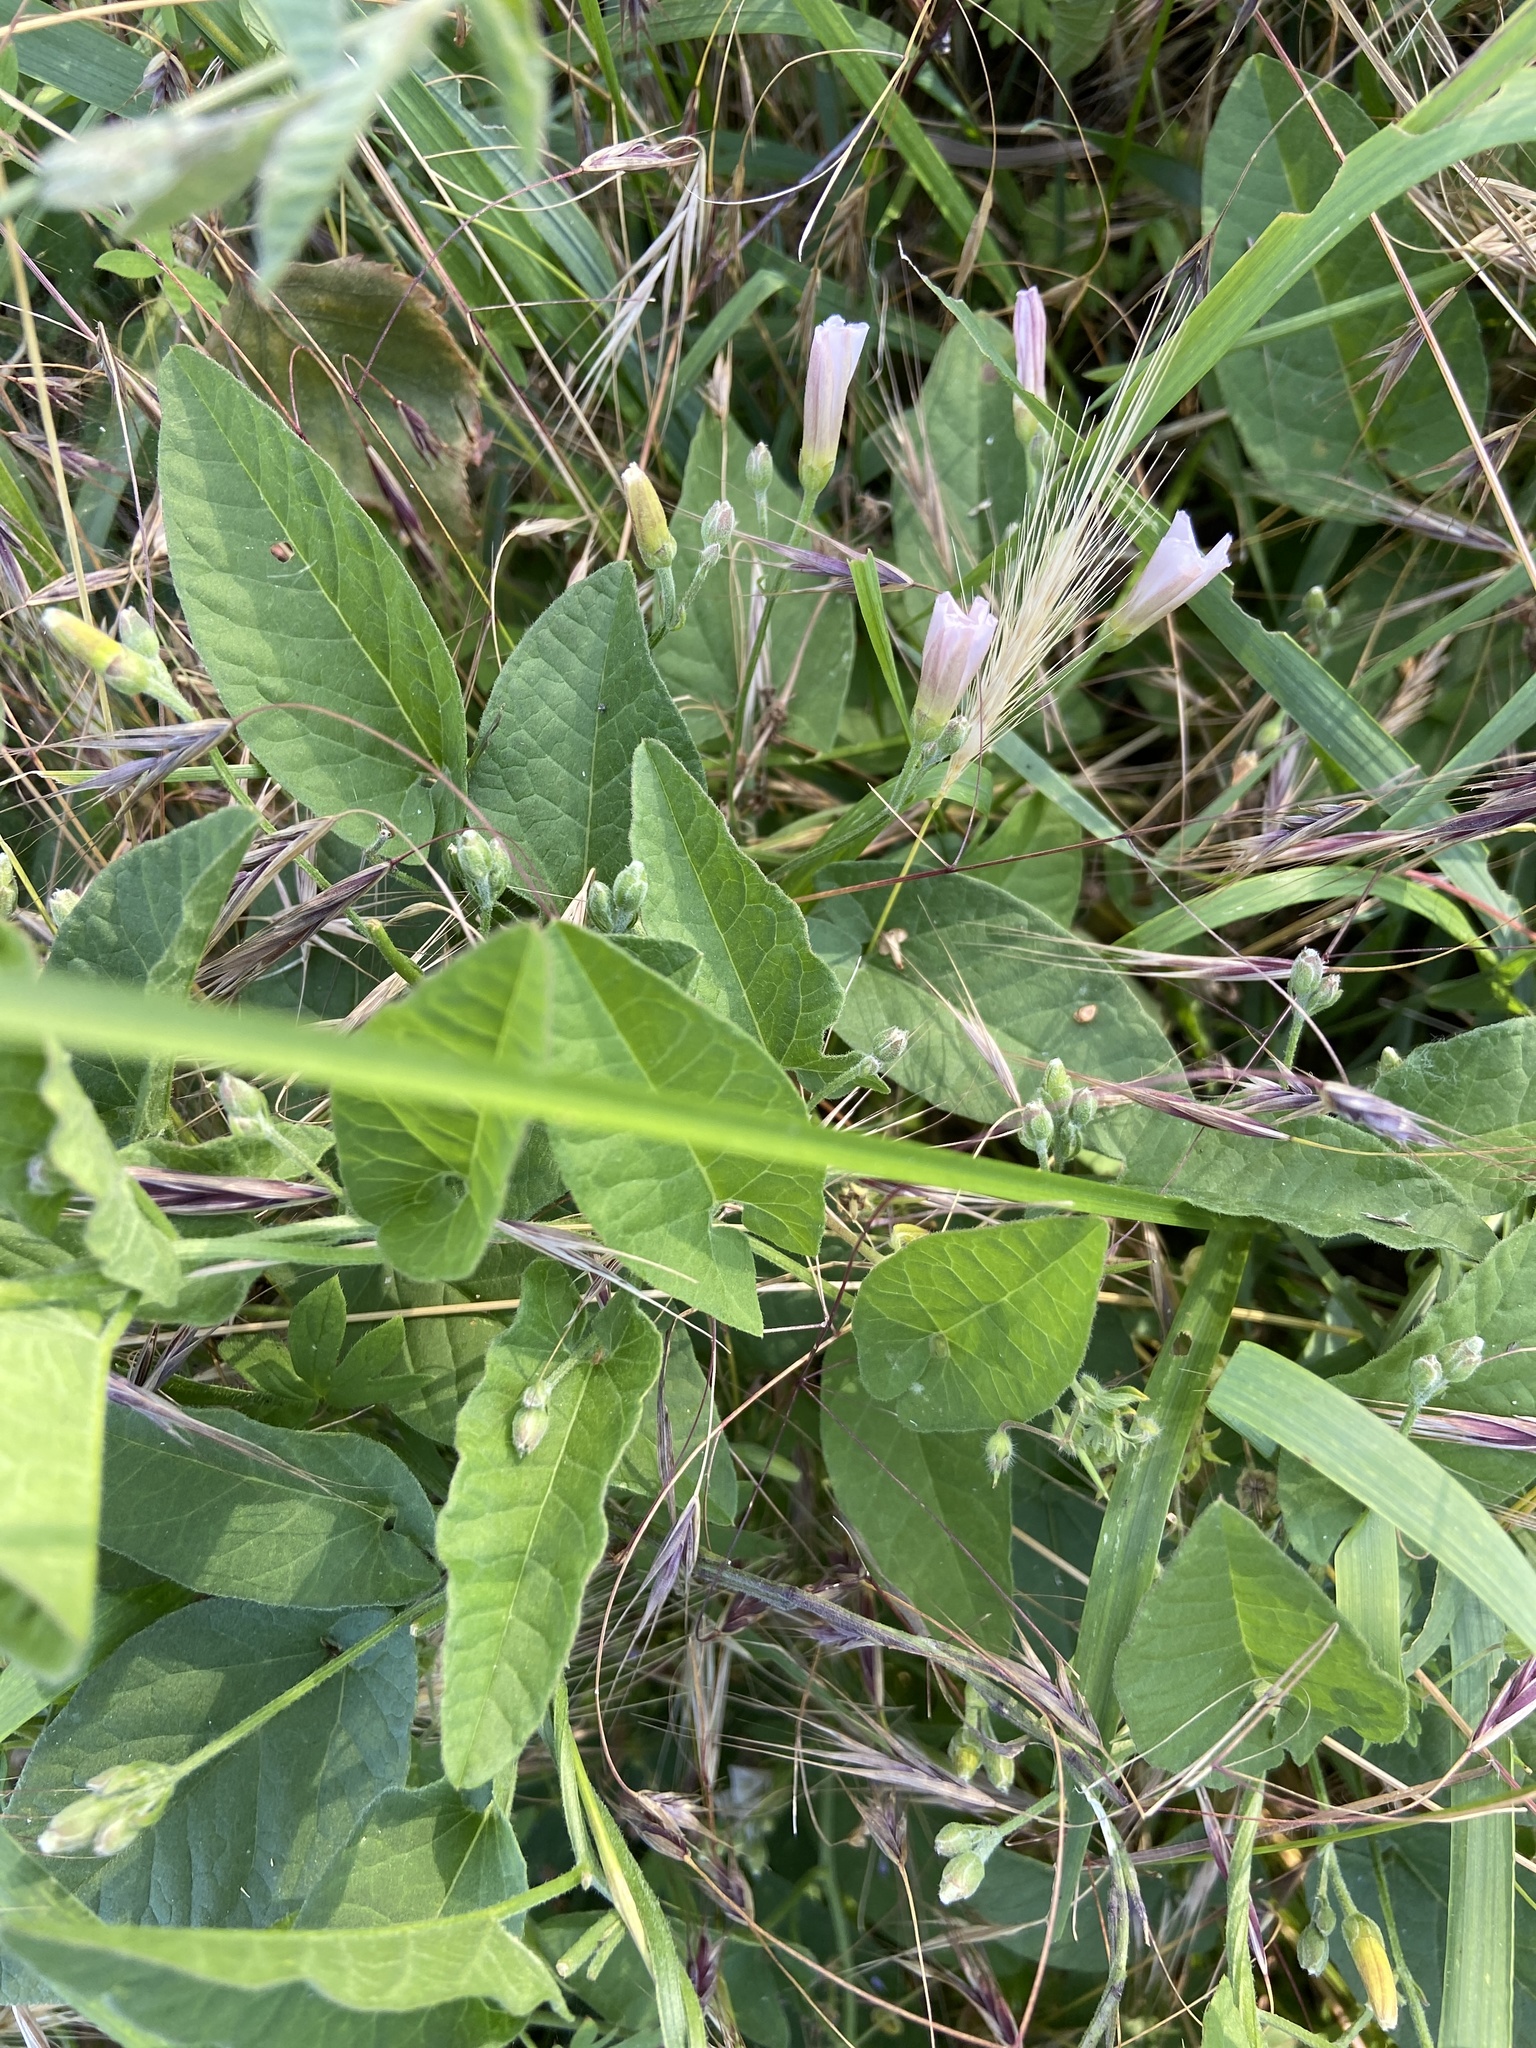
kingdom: Plantae
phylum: Tracheophyta
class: Magnoliopsida
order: Solanales
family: Convolvulaceae
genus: Convolvulus
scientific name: Convolvulus arvensis
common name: Field bindweed
